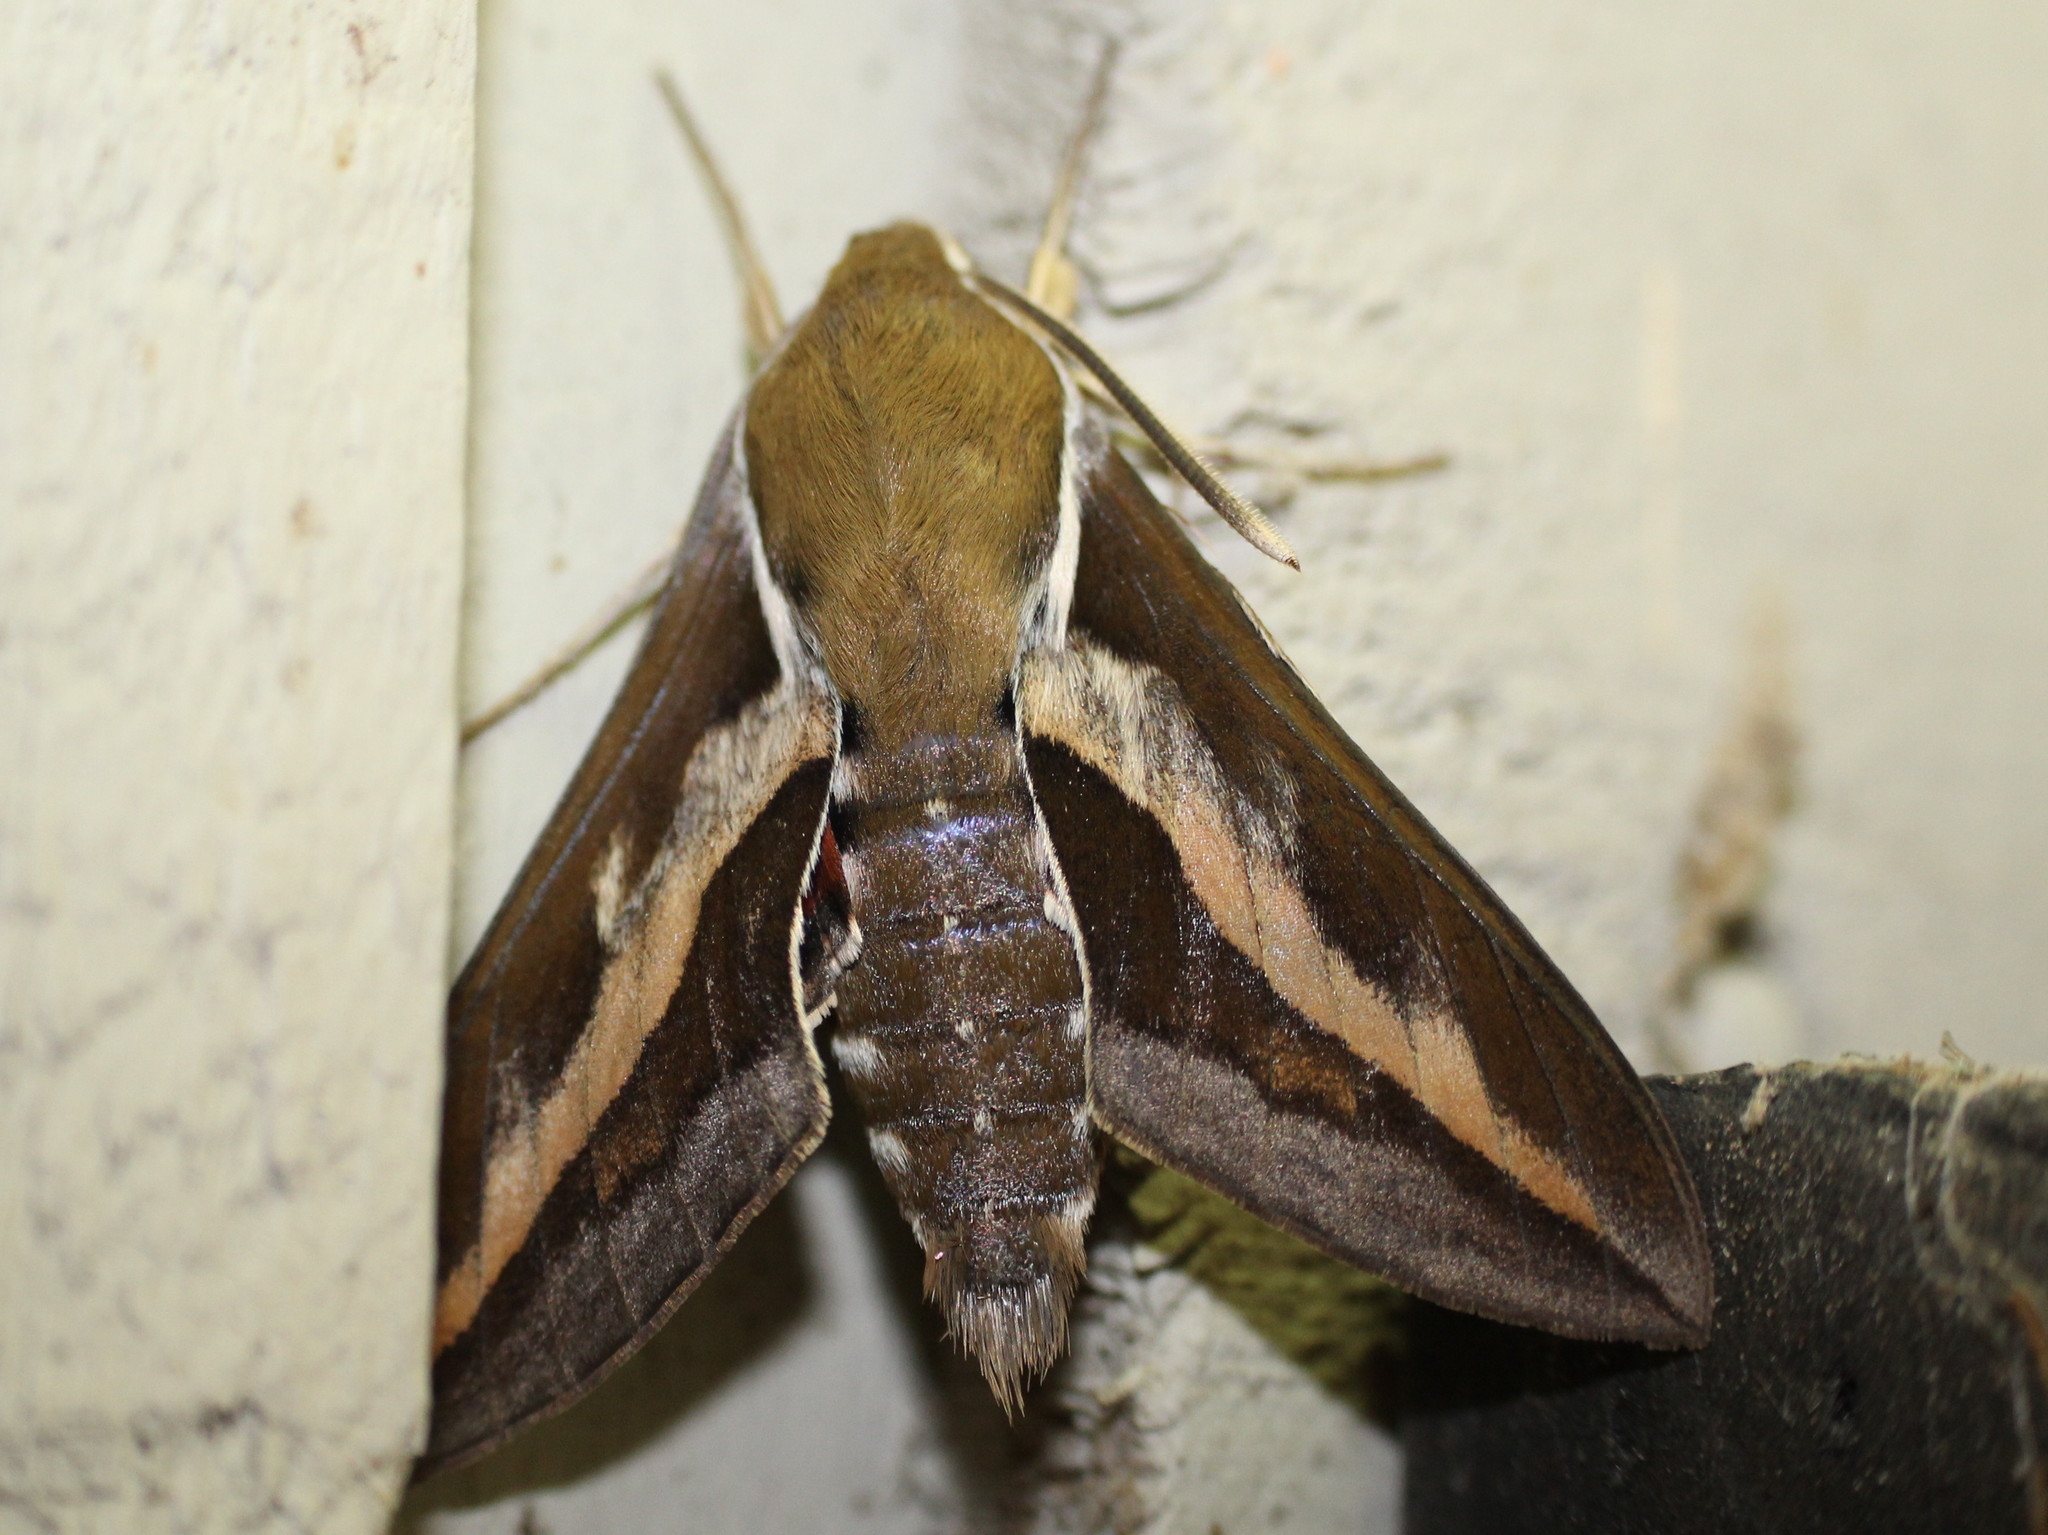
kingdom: Animalia
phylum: Arthropoda
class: Insecta
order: Lepidoptera
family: Sphingidae
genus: Hyles
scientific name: Hyles gallii
